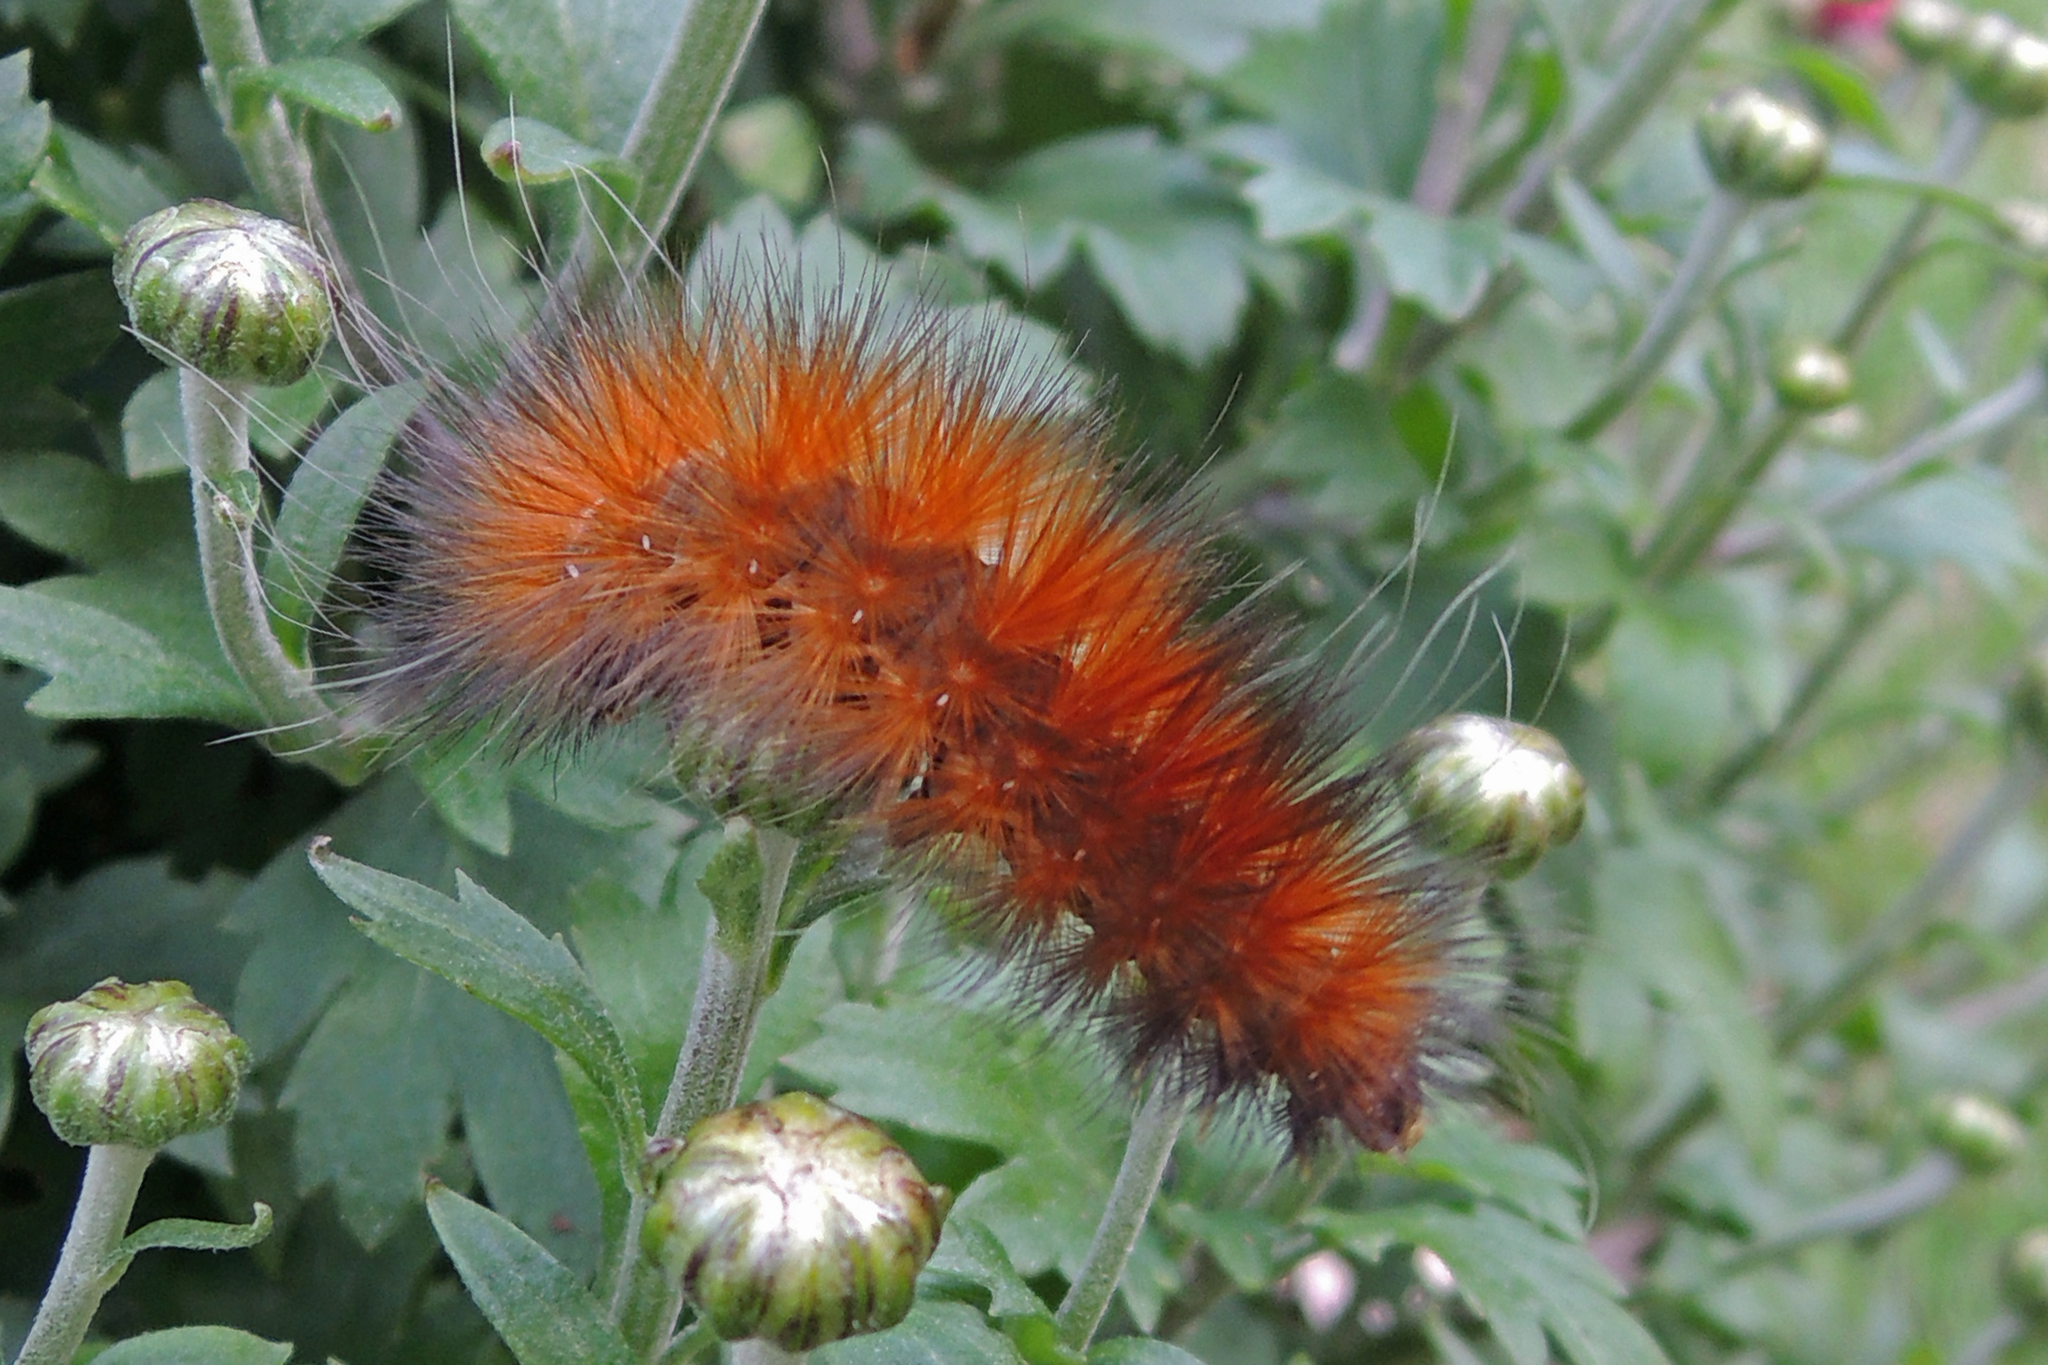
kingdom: Animalia
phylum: Arthropoda
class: Insecta
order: Lepidoptera
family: Erebidae
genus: Spilosoma
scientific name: Spilosoma virginica
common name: Virginia tiger moth
